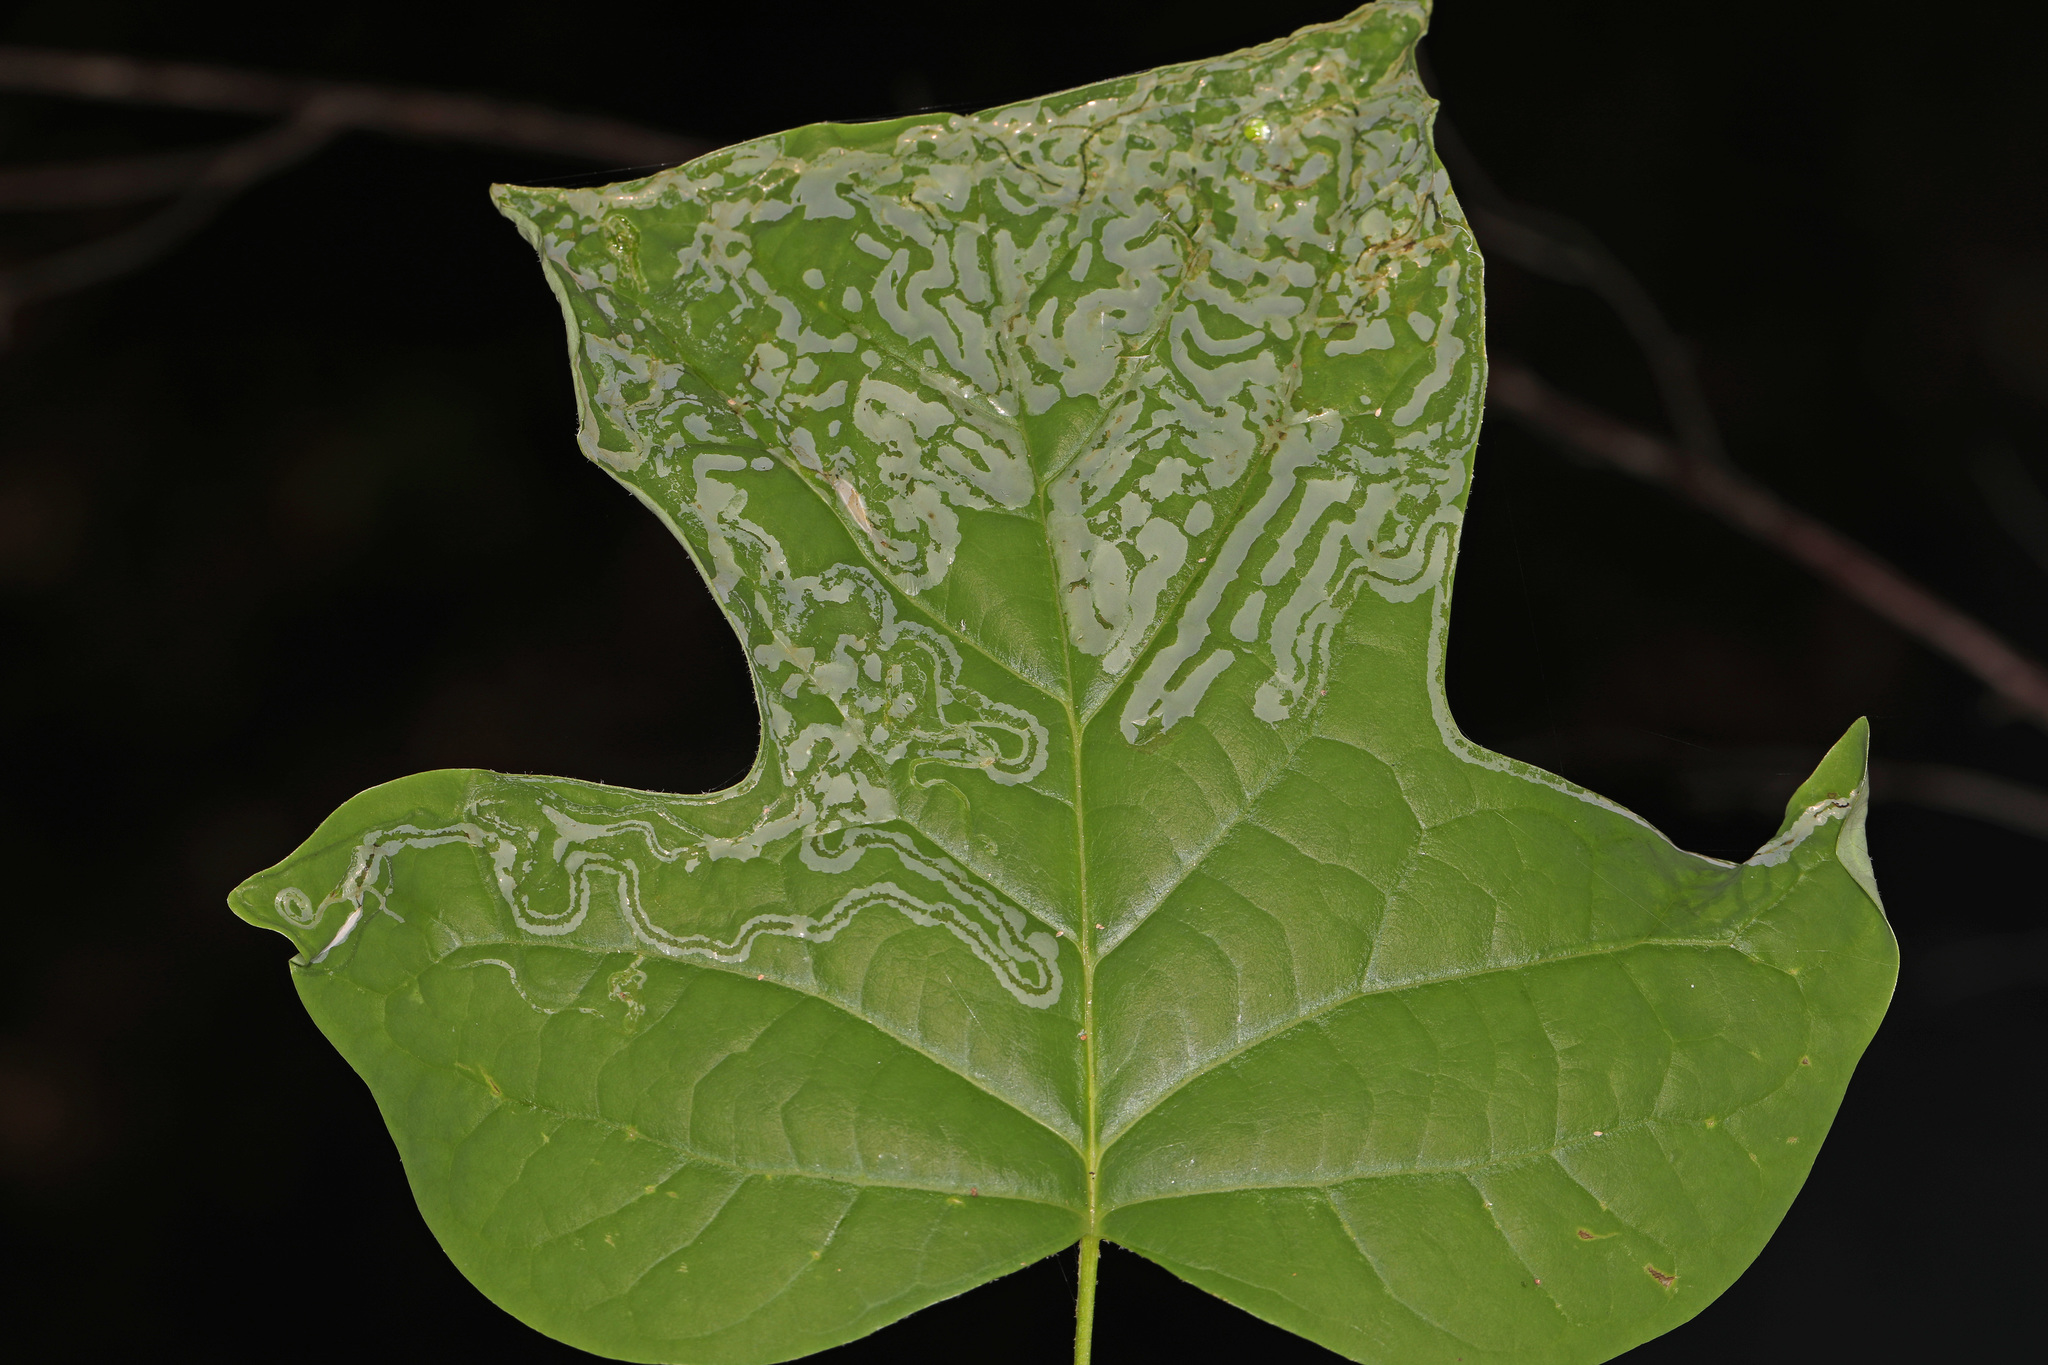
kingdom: Animalia
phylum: Arthropoda
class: Insecta
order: Lepidoptera
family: Gracillariidae
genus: Phyllocnistis
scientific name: Phyllocnistis liriodendronella
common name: Tulip tree leaf miner
